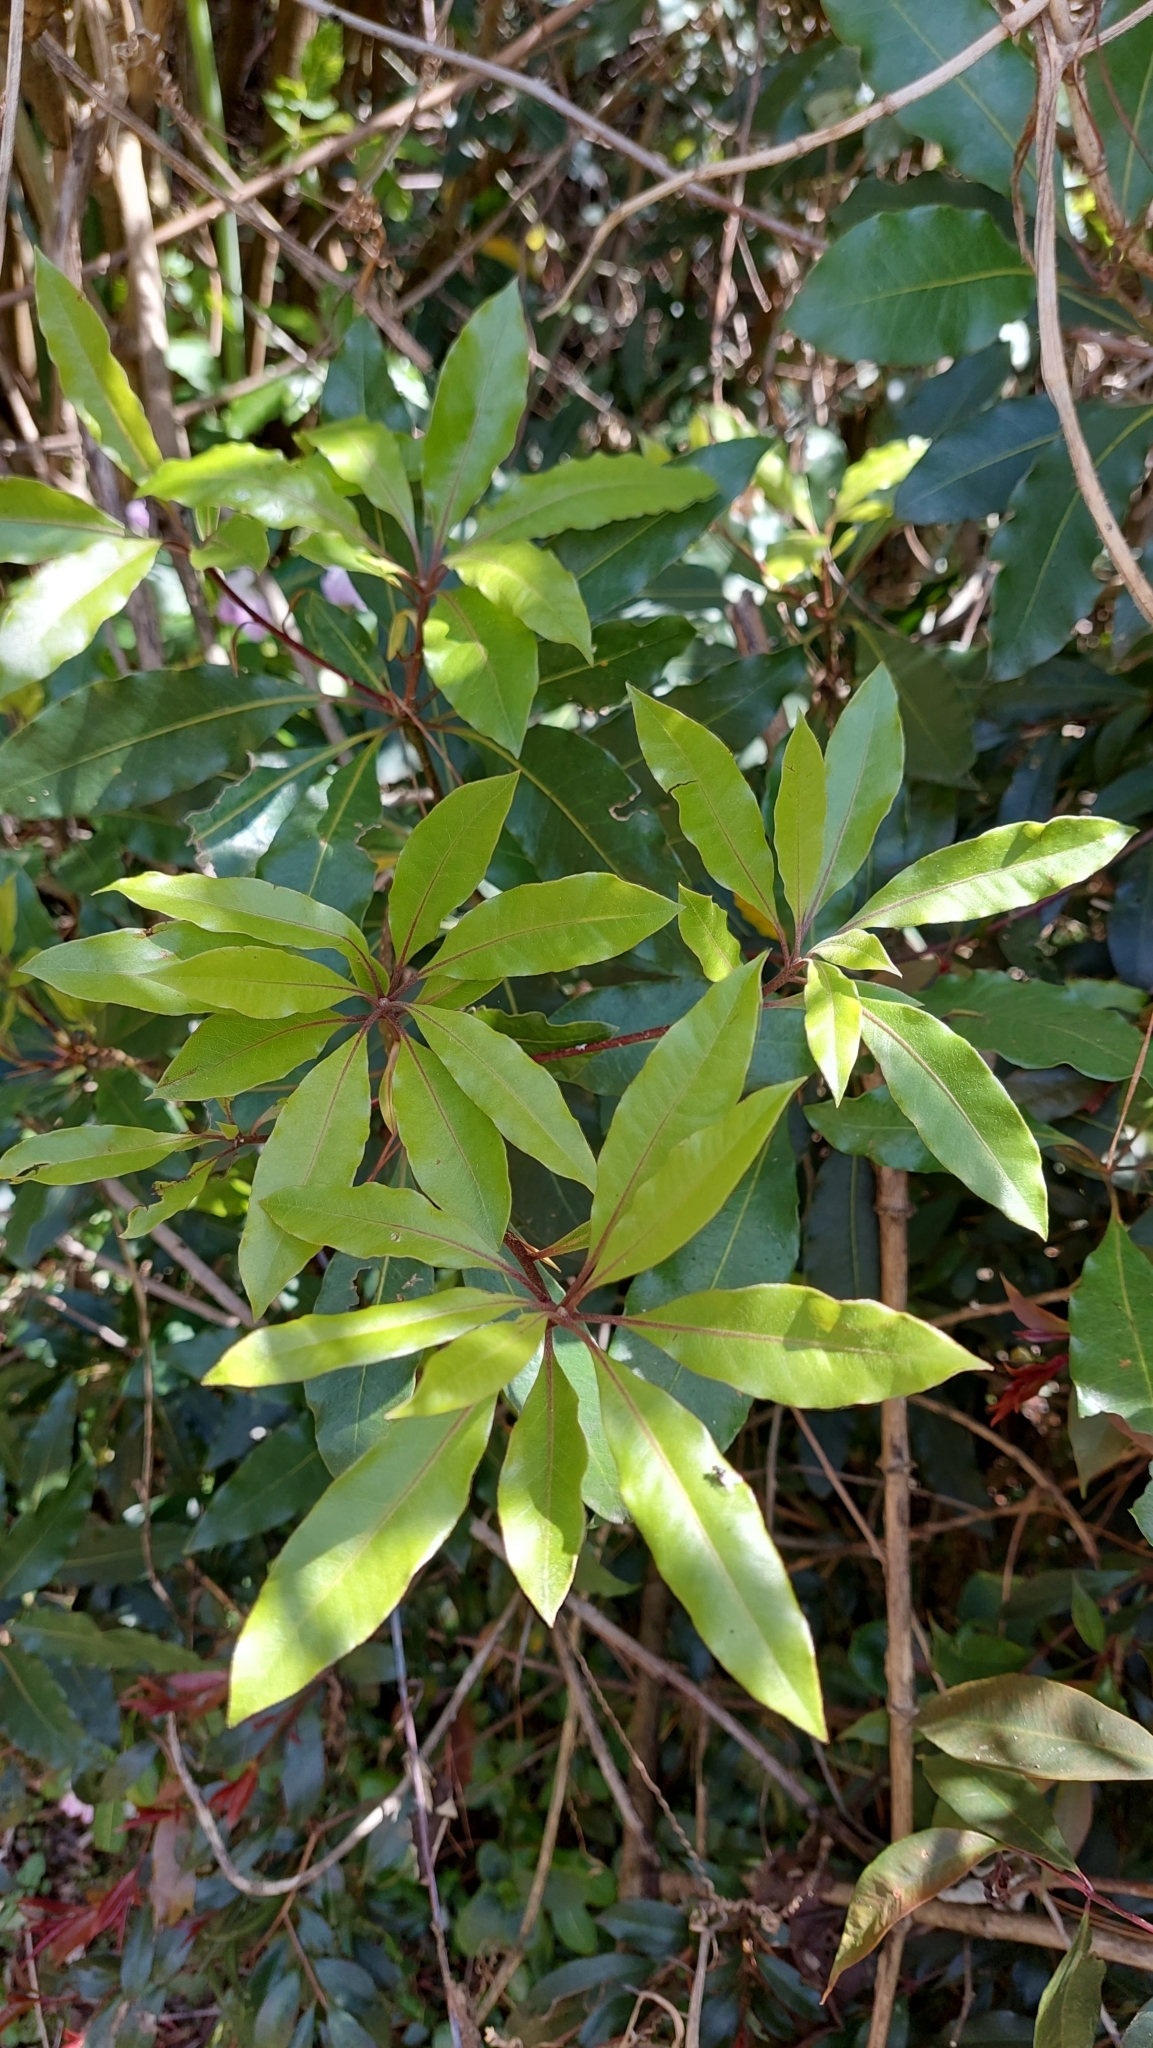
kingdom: Plantae
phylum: Tracheophyta
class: Magnoliopsida
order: Apiales
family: Pittosporaceae
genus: Pittosporum
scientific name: Pittosporum undulatum
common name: Australian cheesewood
